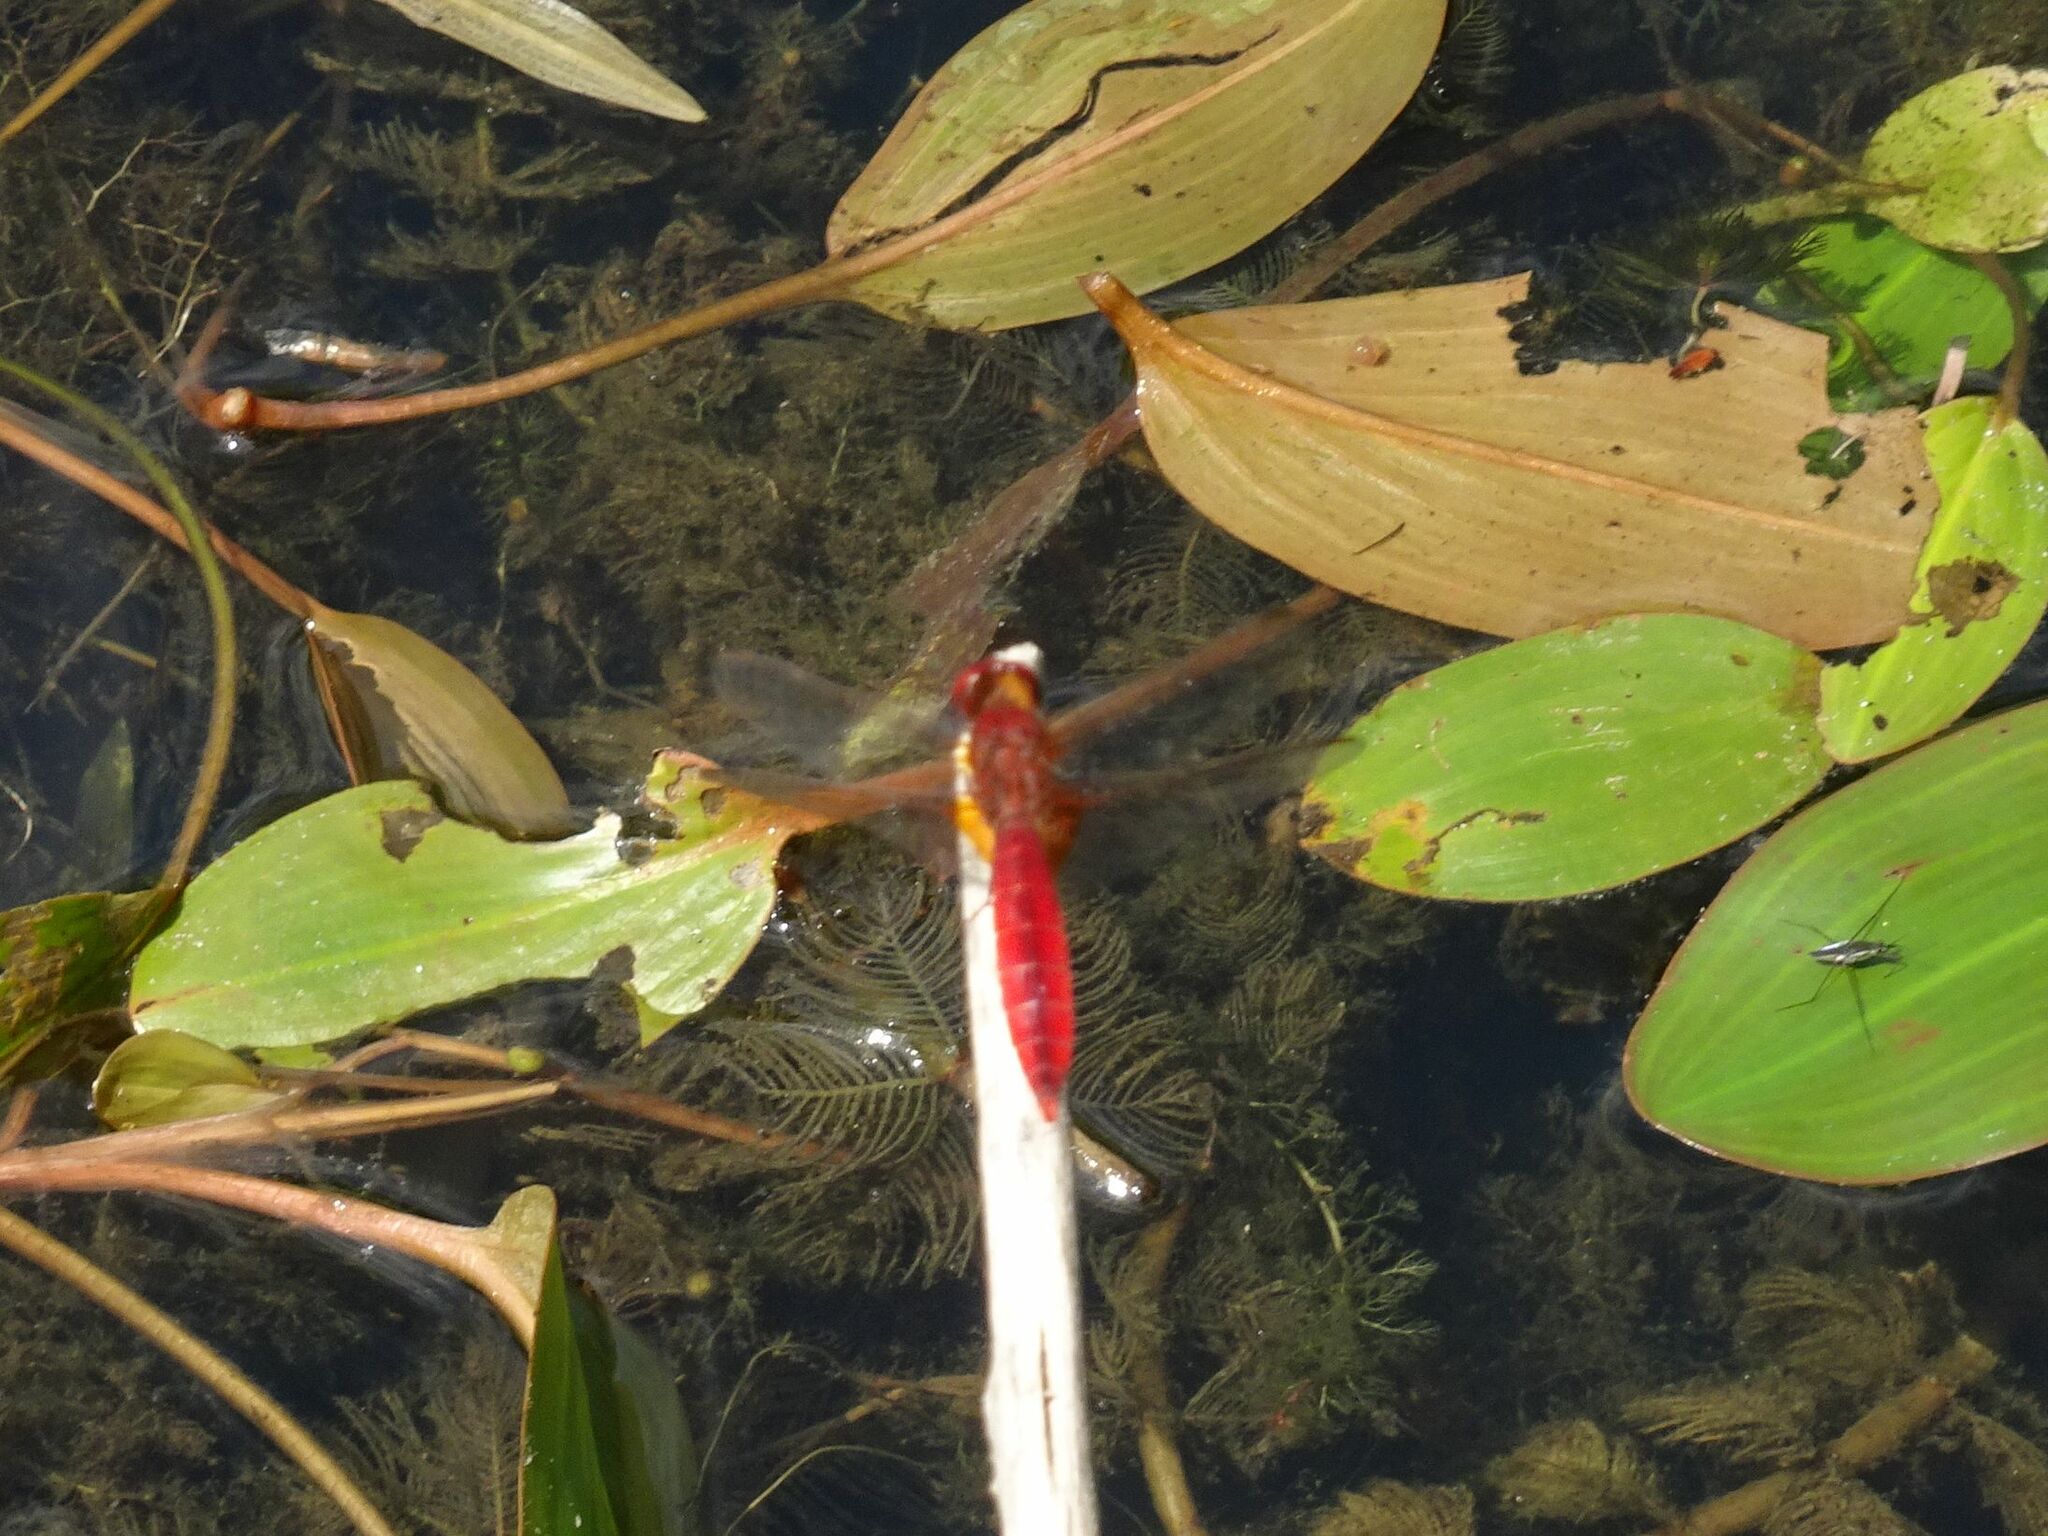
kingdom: Animalia
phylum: Arthropoda
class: Insecta
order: Odonata
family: Libellulidae
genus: Crocothemis
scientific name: Crocothemis erythraea
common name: Scarlet dragonfly
